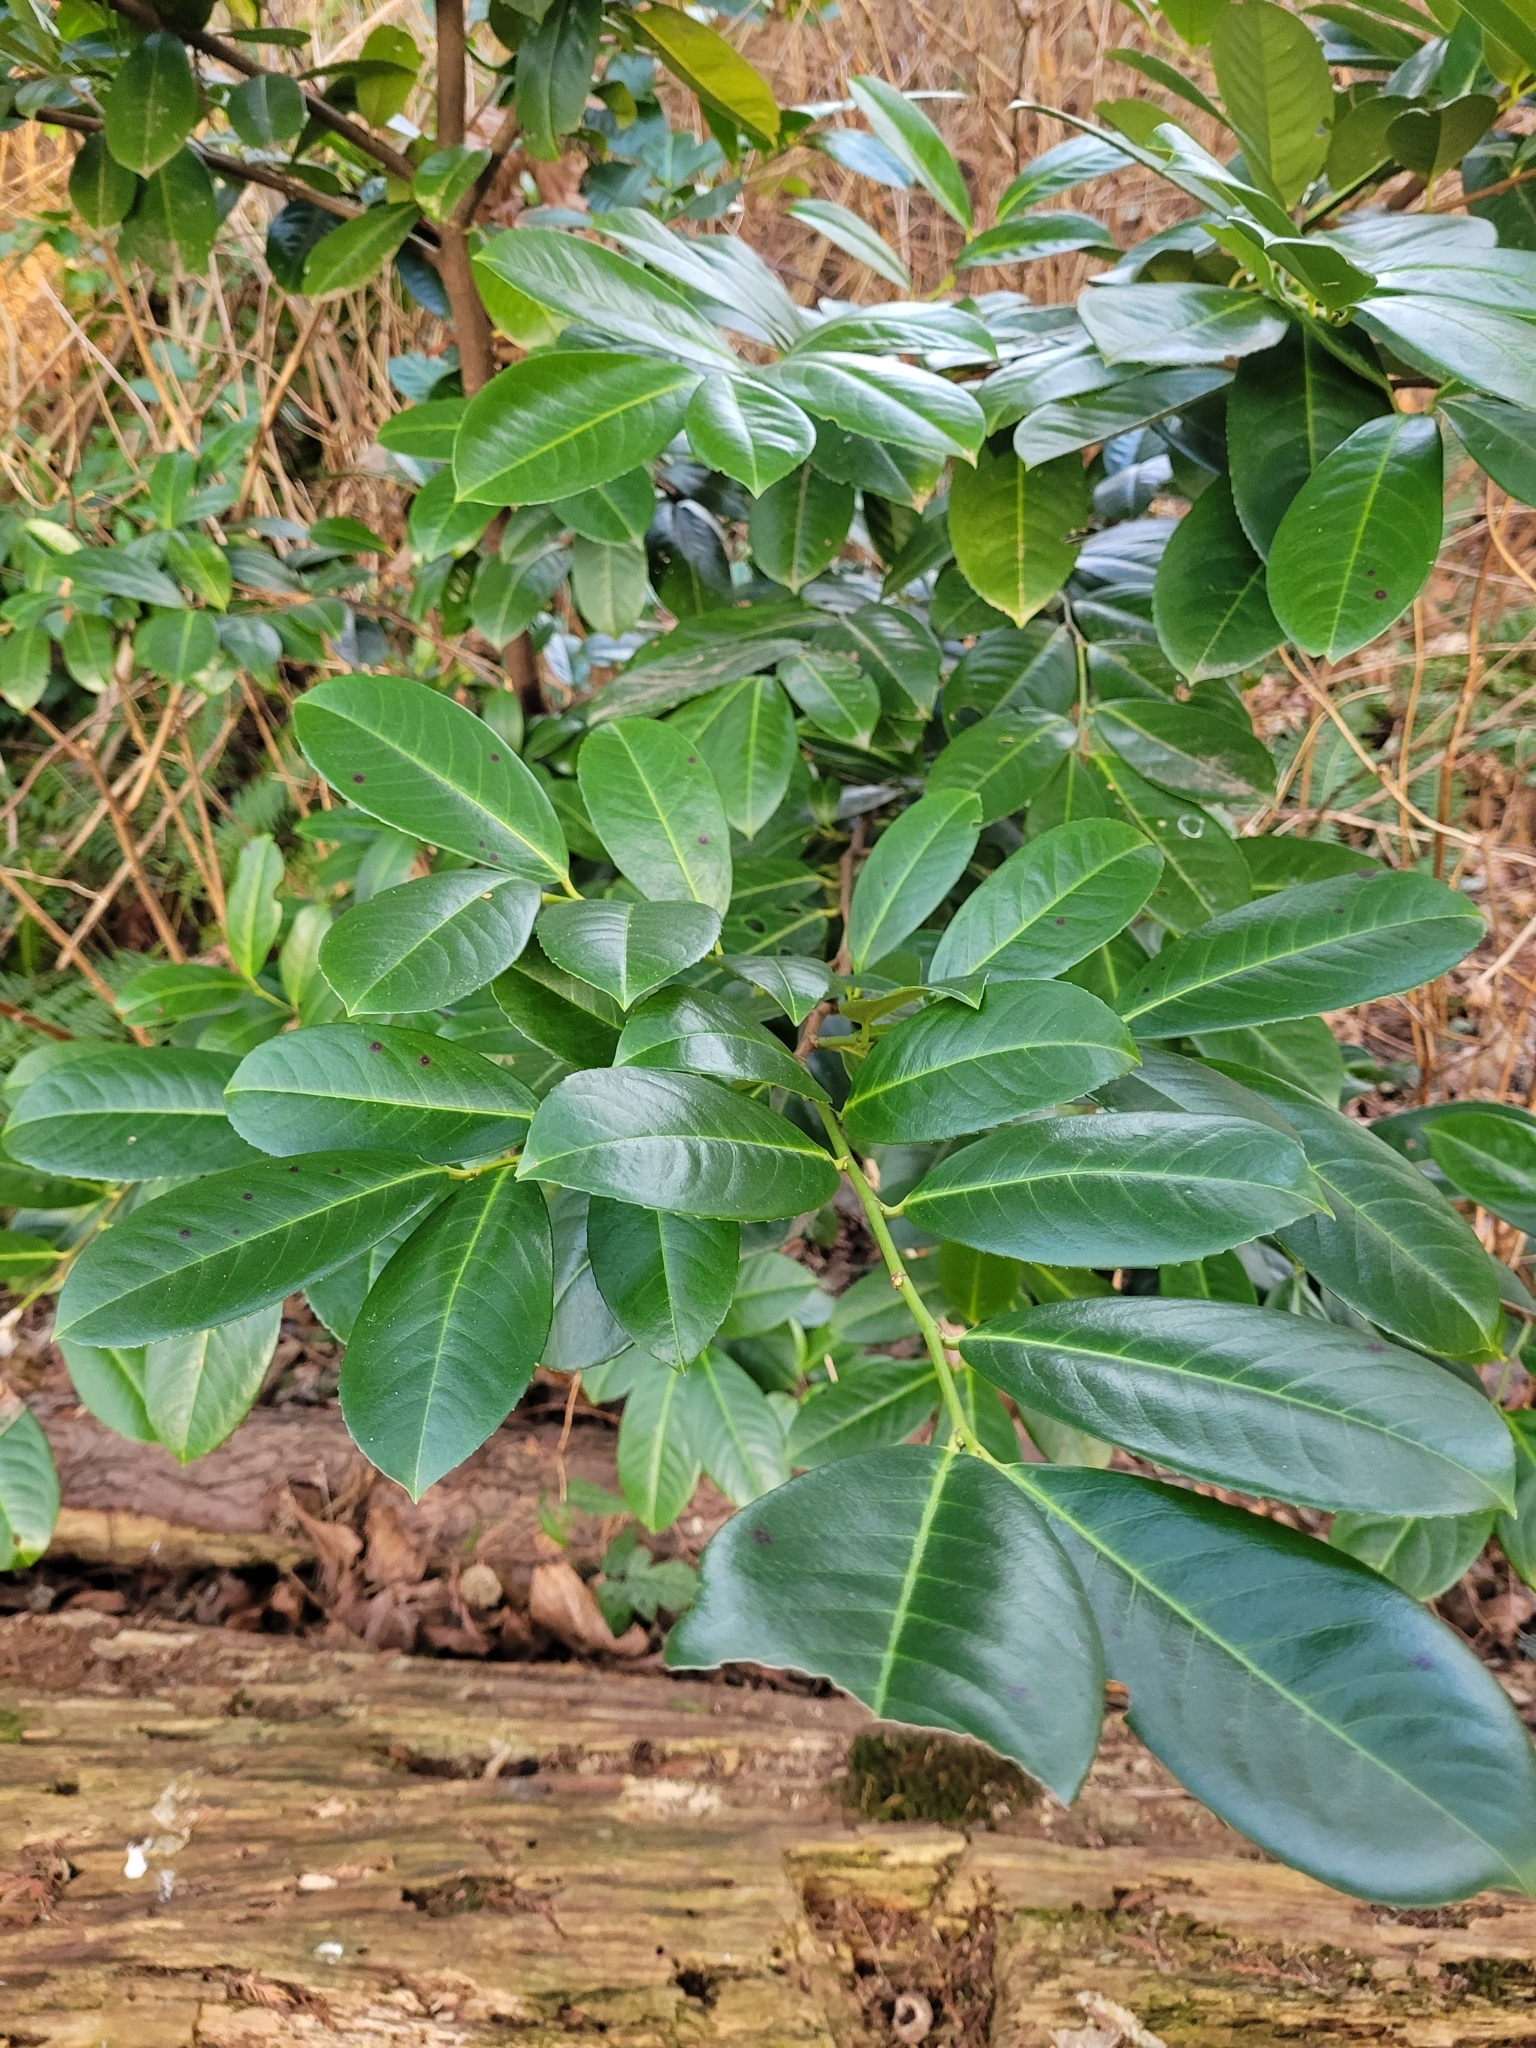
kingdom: Plantae
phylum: Tracheophyta
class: Magnoliopsida
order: Rosales
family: Rosaceae
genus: Prunus
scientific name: Prunus laurocerasus
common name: Cherry laurel
